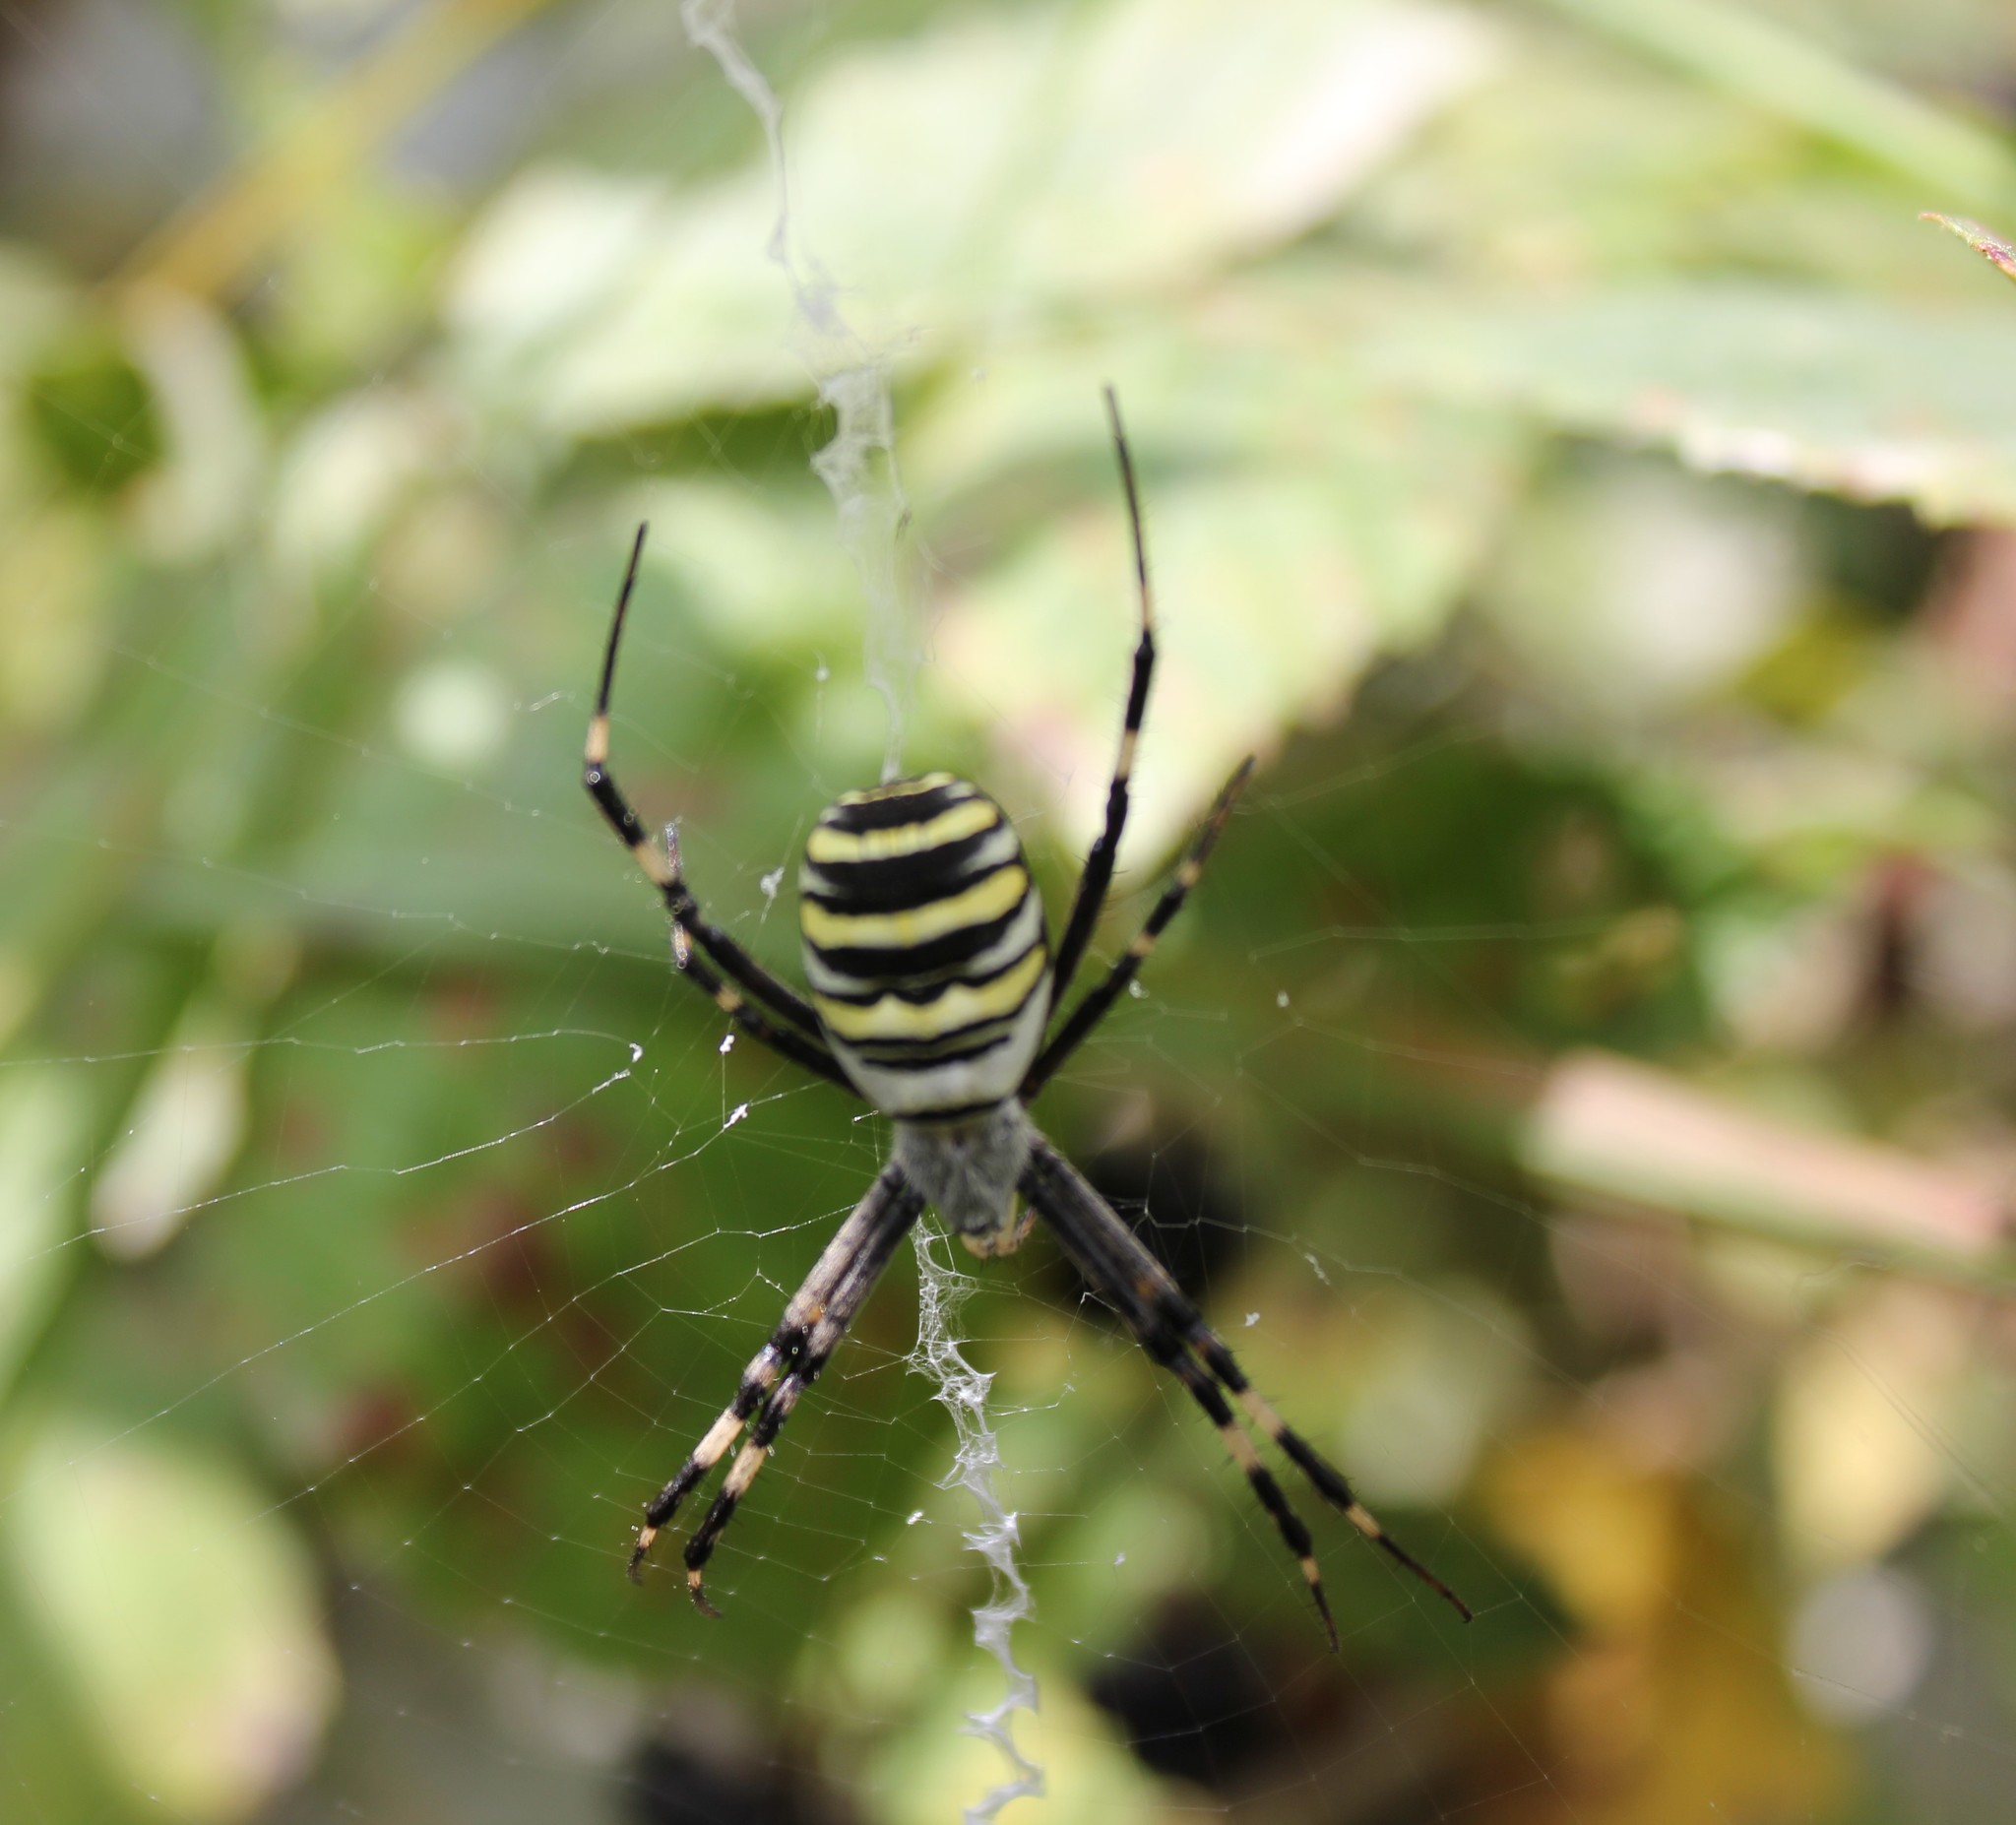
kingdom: Animalia
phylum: Arthropoda
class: Arachnida
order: Araneae
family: Araneidae
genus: Argiope
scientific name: Argiope bruennichi
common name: Wasp spider
